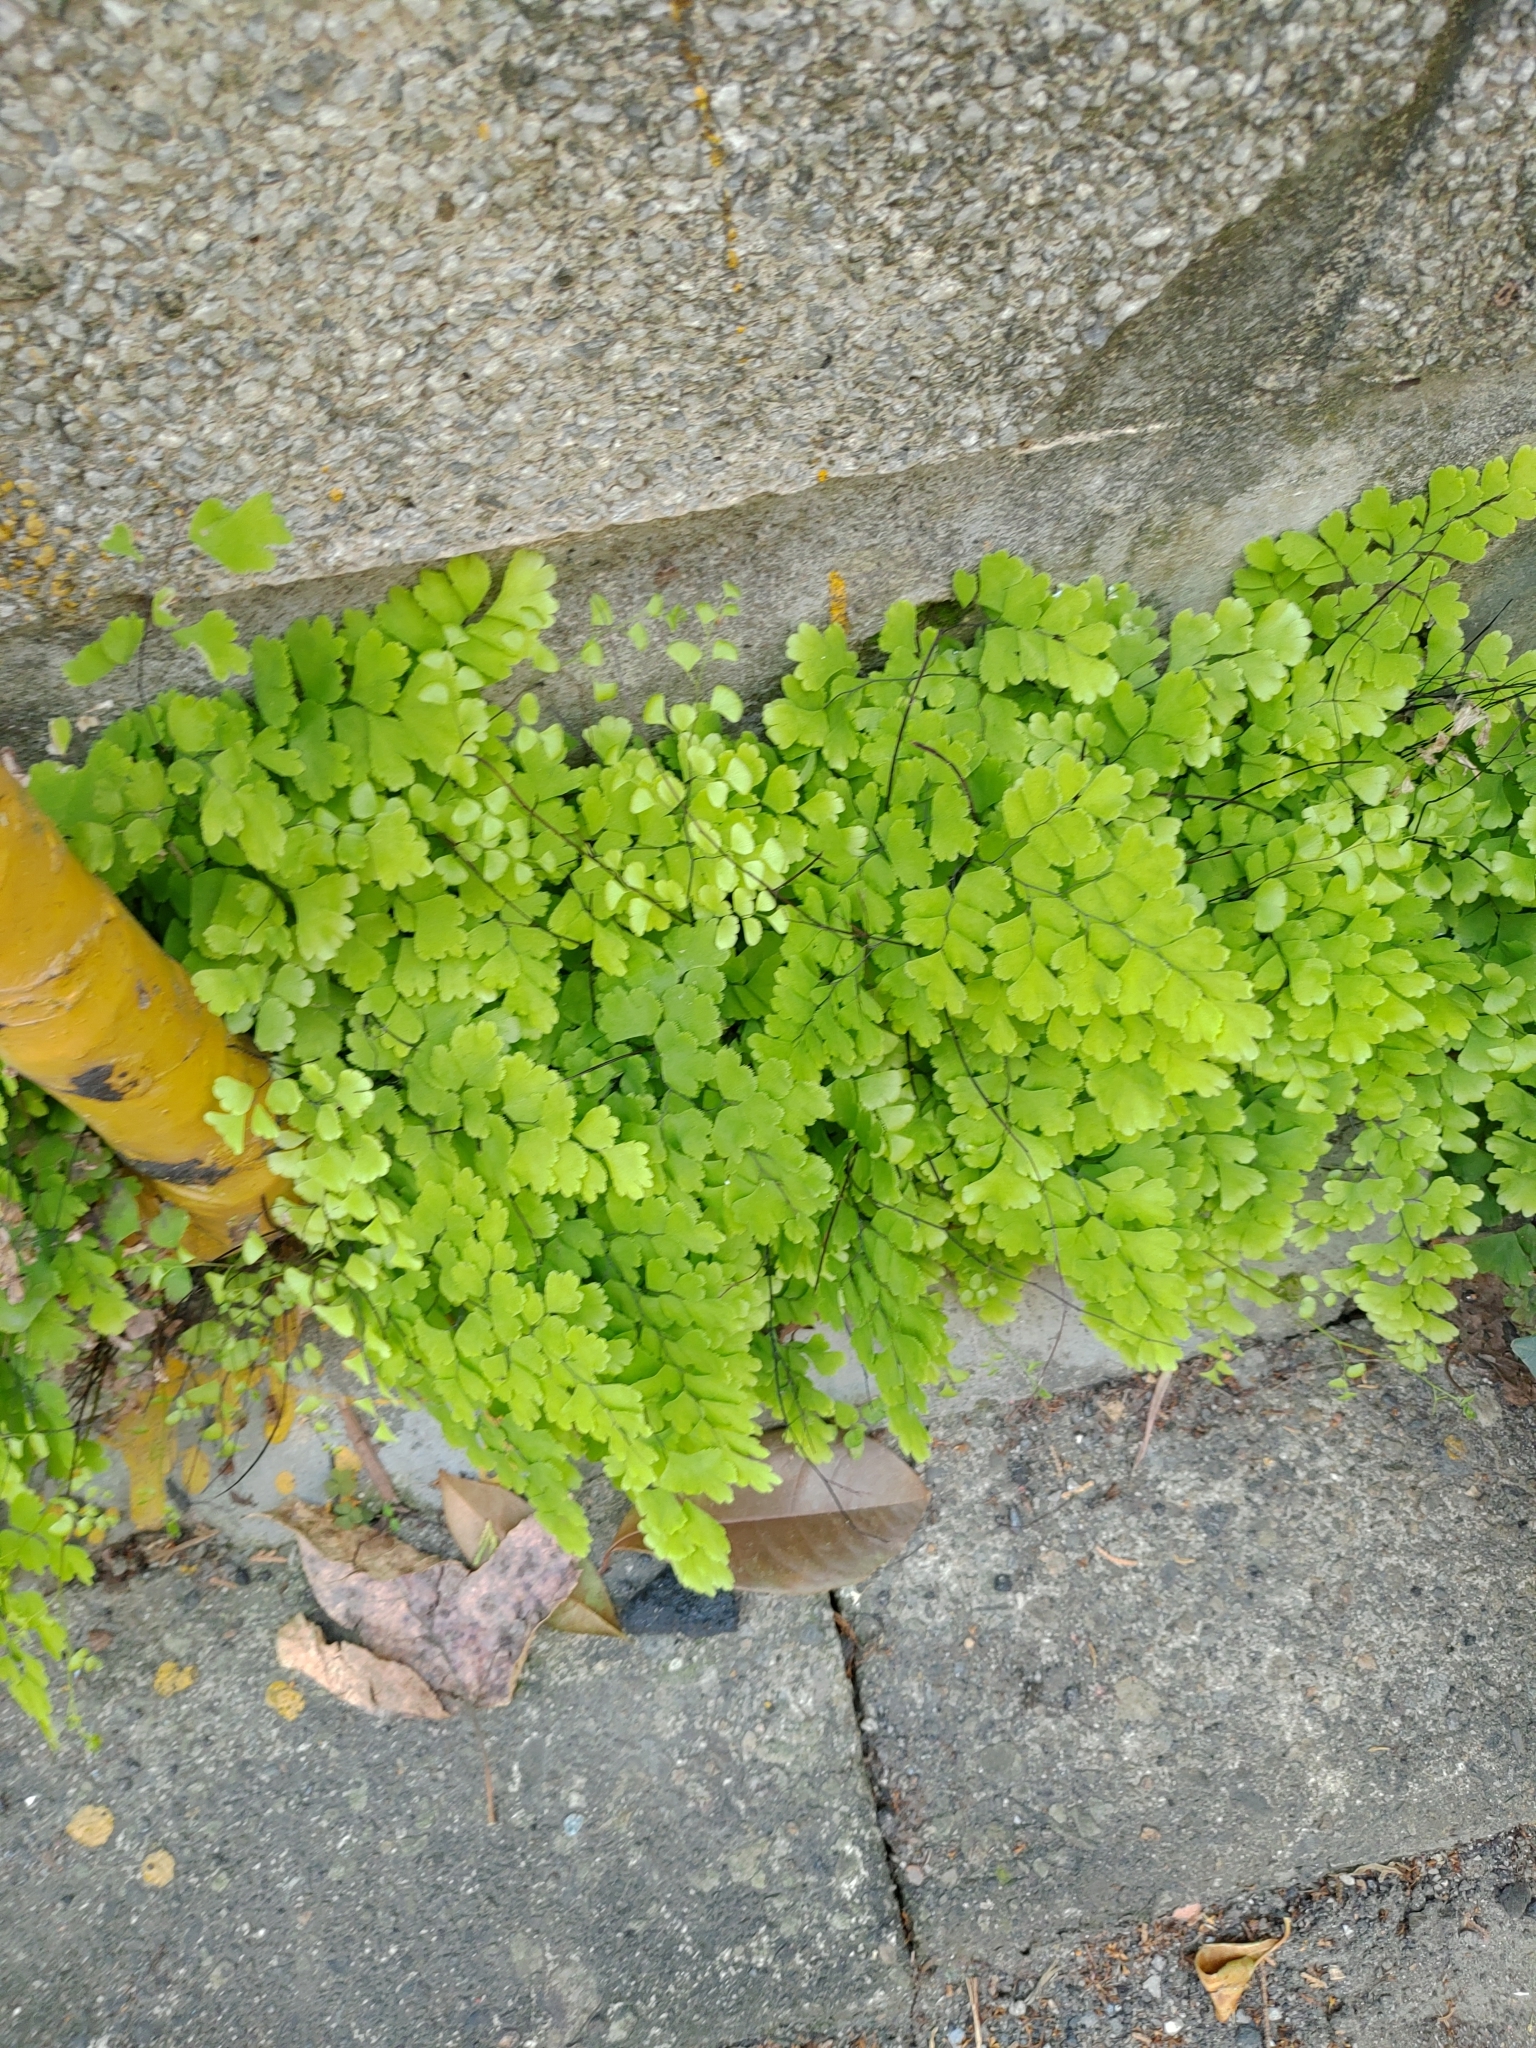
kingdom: Plantae
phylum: Tracheophyta
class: Polypodiopsida
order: Polypodiales
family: Pteridaceae
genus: Adiantum
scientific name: Adiantum capillus-veneris
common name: Maidenhair fern
